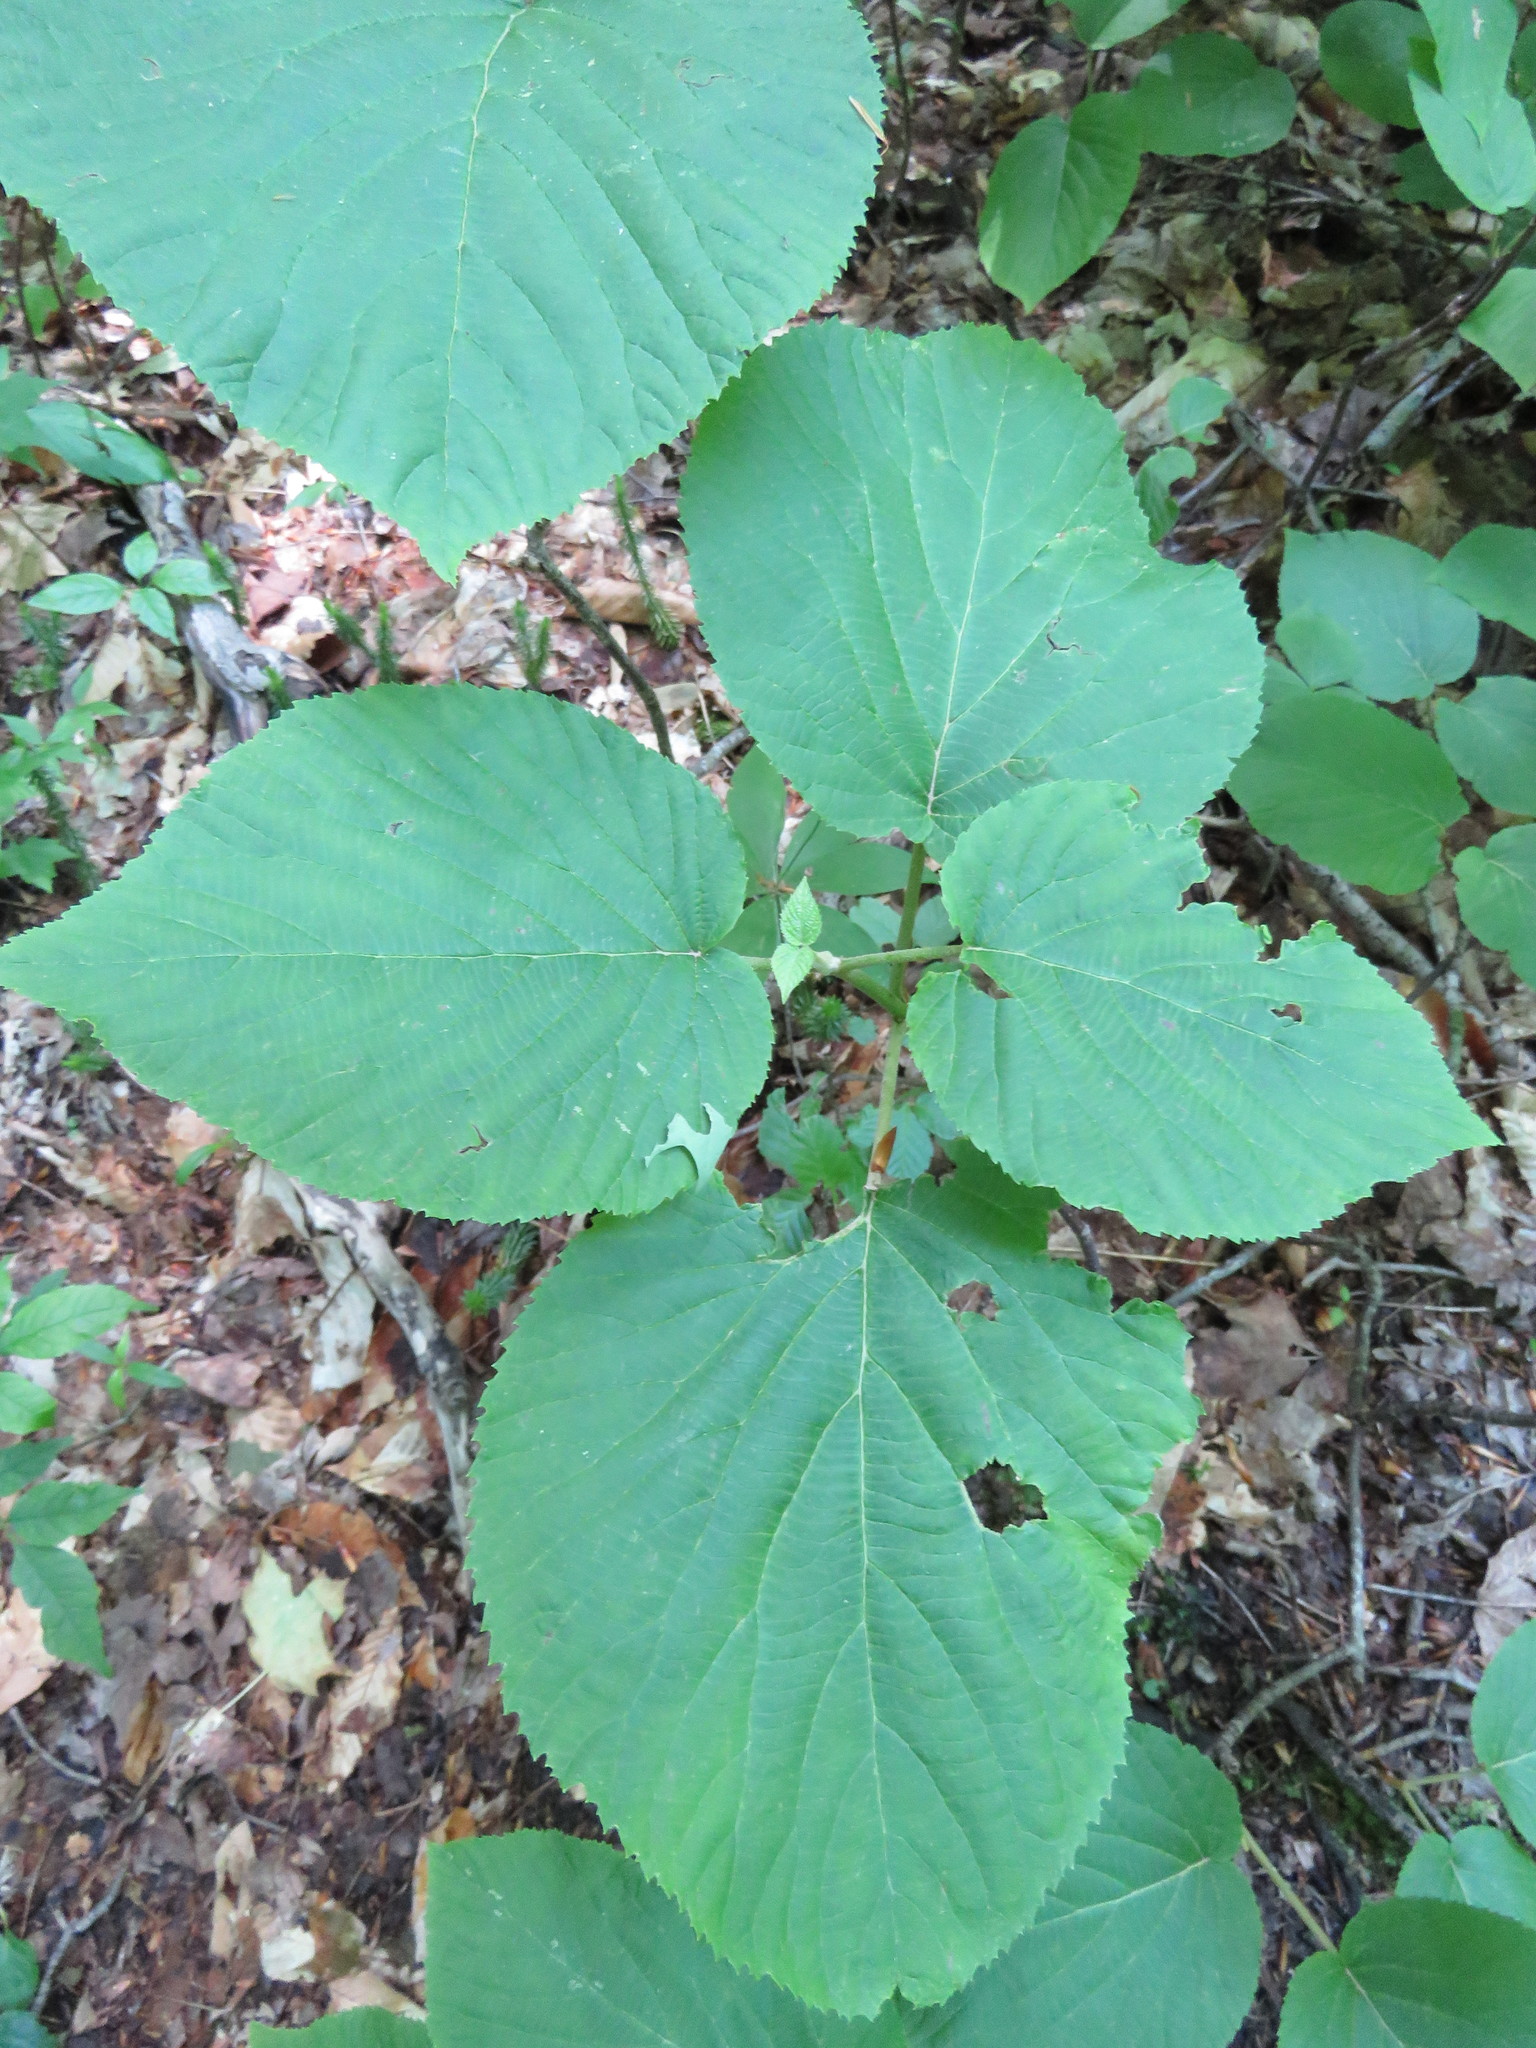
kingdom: Plantae
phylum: Tracheophyta
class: Magnoliopsida
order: Dipsacales
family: Viburnaceae
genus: Viburnum
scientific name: Viburnum lantanoides
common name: Hobblebush
